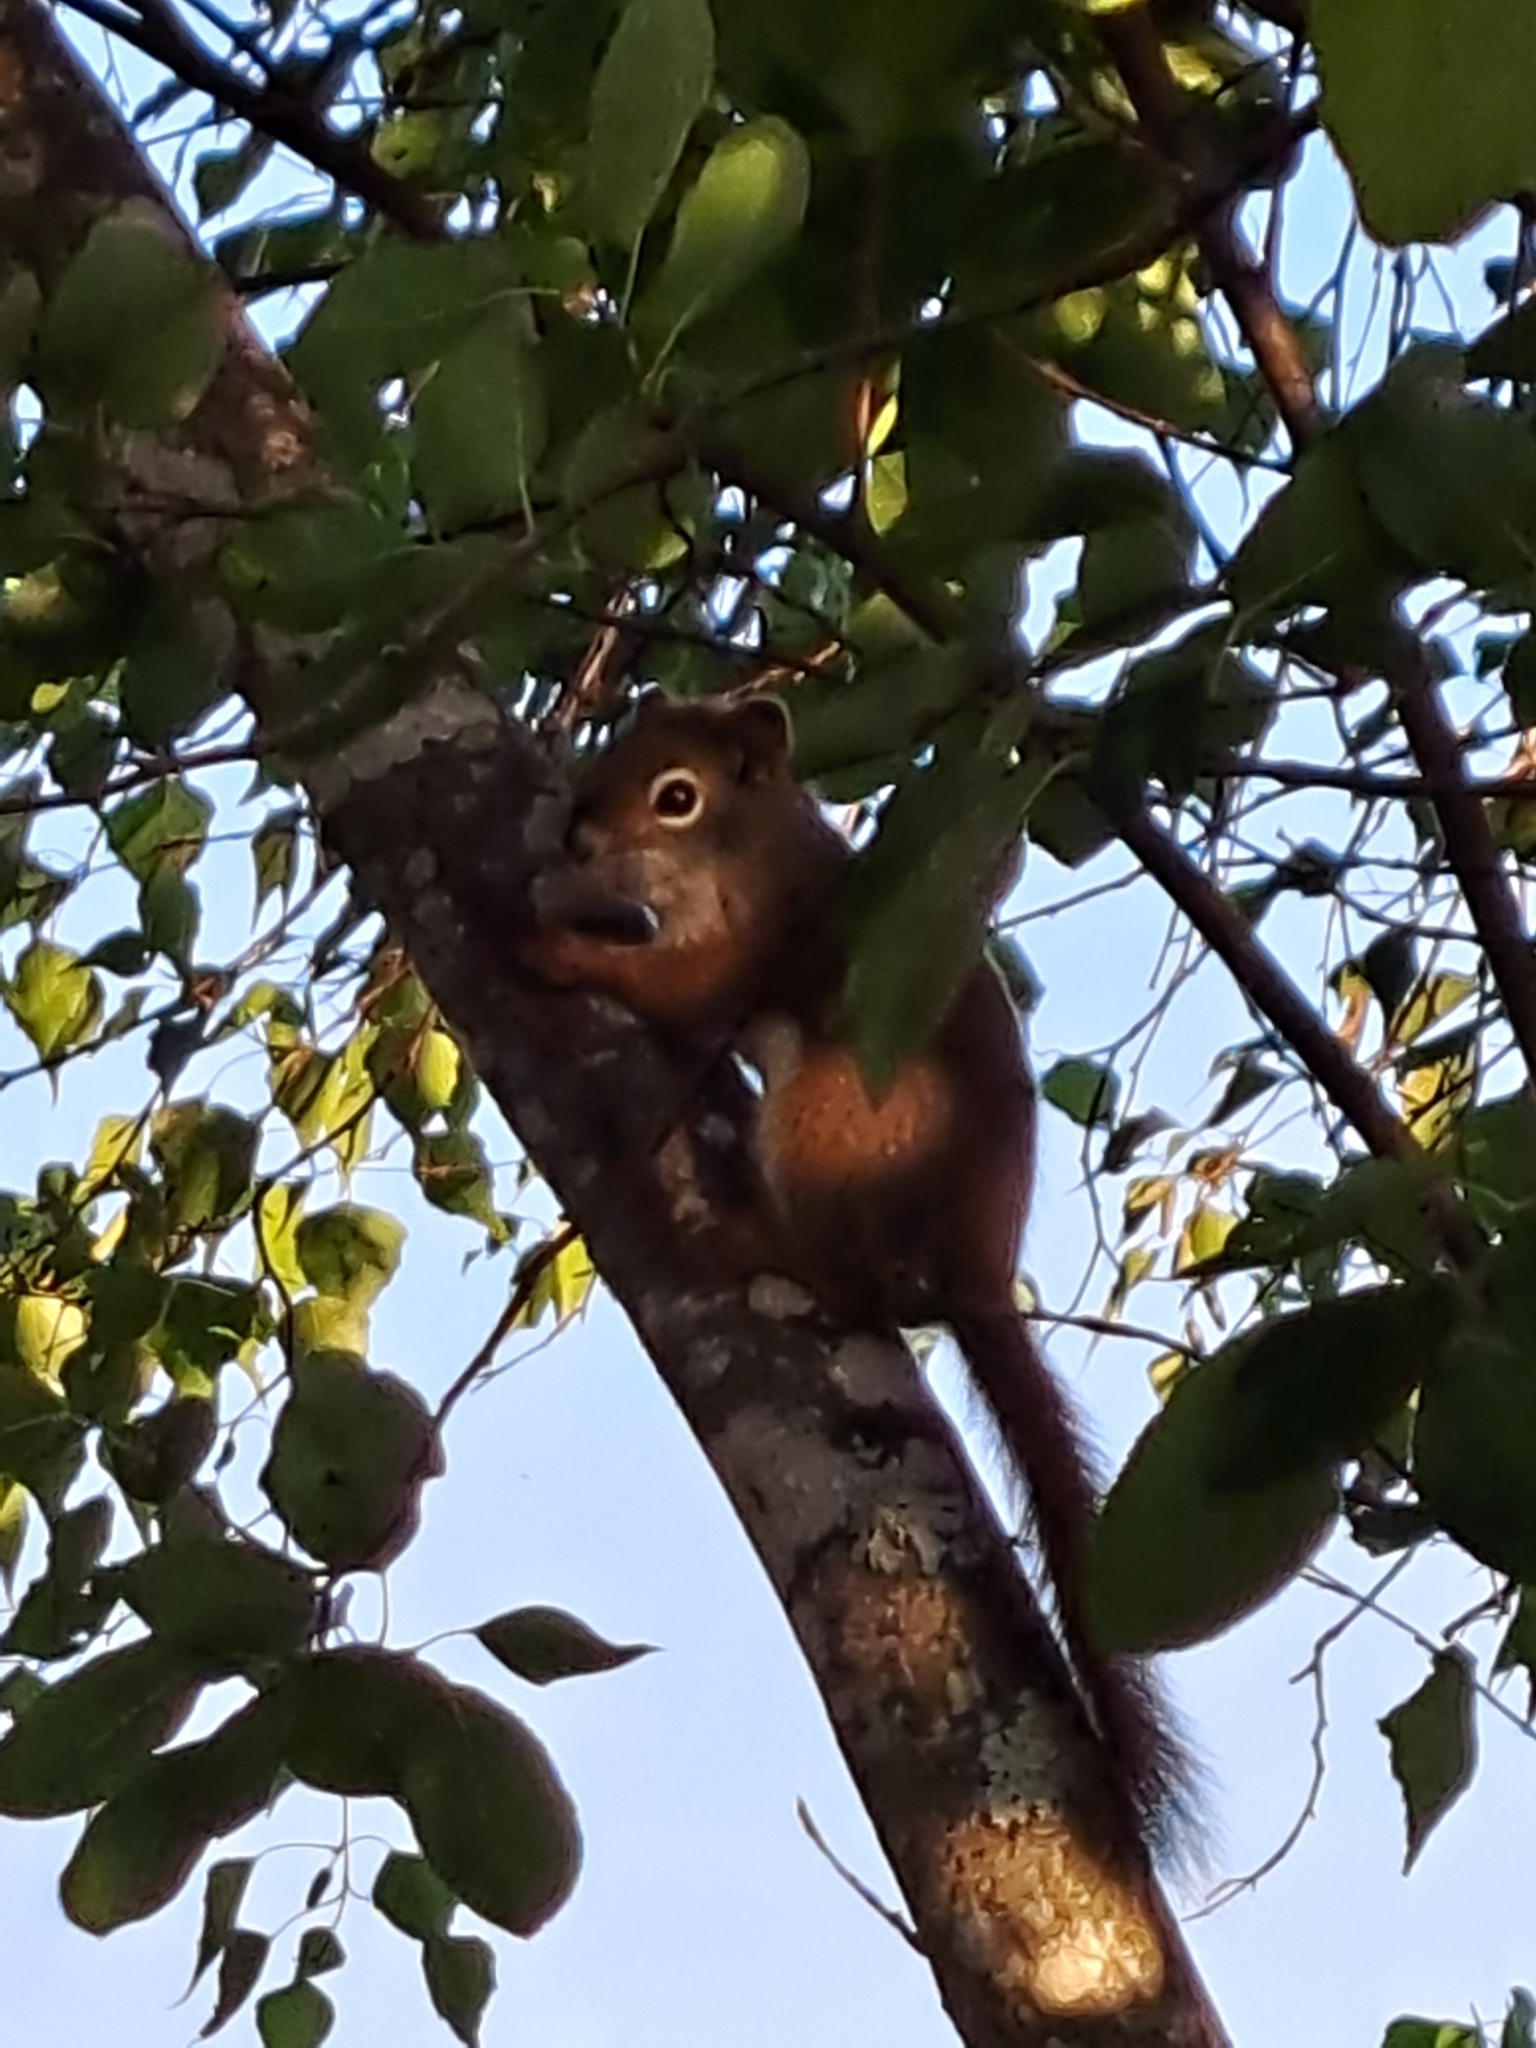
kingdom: Animalia
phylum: Chordata
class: Mammalia
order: Rodentia
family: Sciuridae
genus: Tamiasciurus
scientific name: Tamiasciurus hudsonicus
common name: Red squirrel
